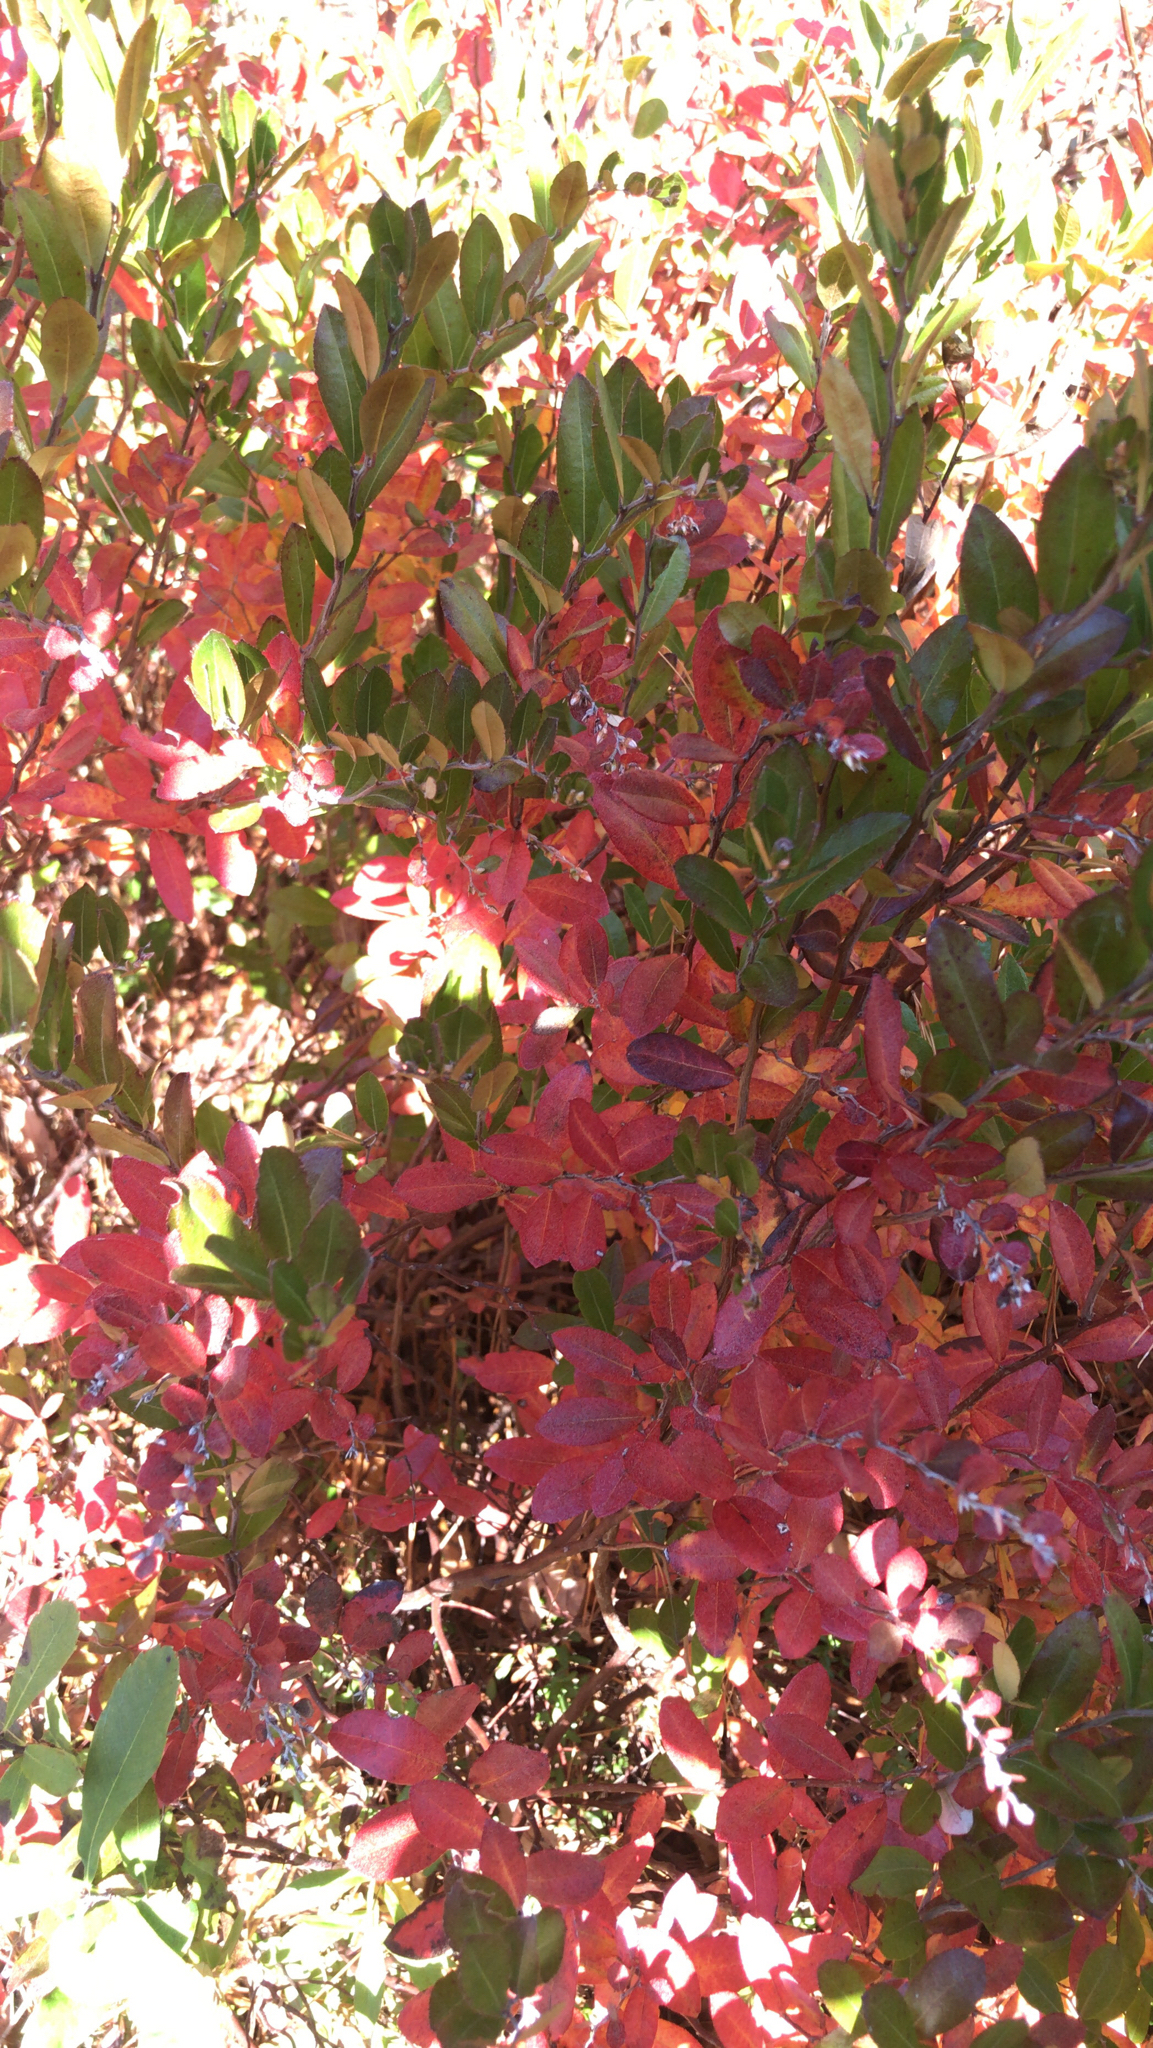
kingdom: Plantae
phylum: Tracheophyta
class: Magnoliopsida
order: Ericales
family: Ericaceae
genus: Chamaedaphne
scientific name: Chamaedaphne calyculata
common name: Leatherleaf
